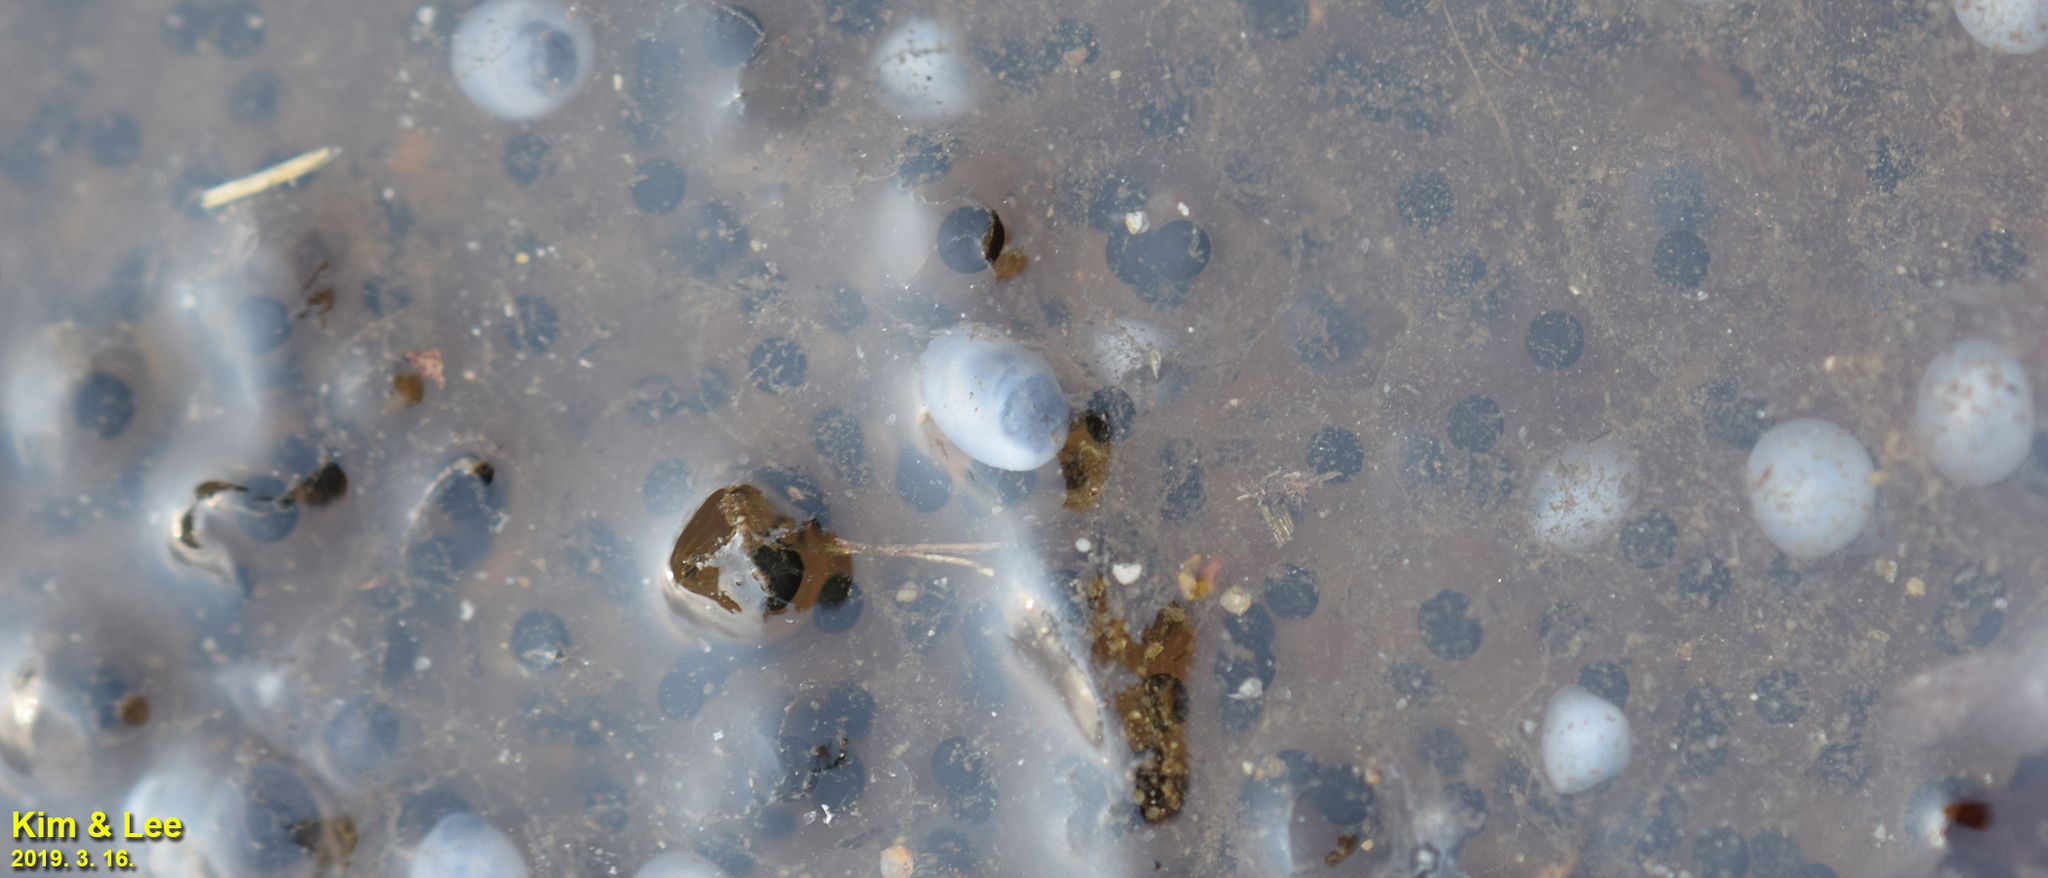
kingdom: Animalia
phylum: Chordata
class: Amphibia
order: Anura
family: Ranidae
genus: Rana
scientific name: Rana huanrenensis
